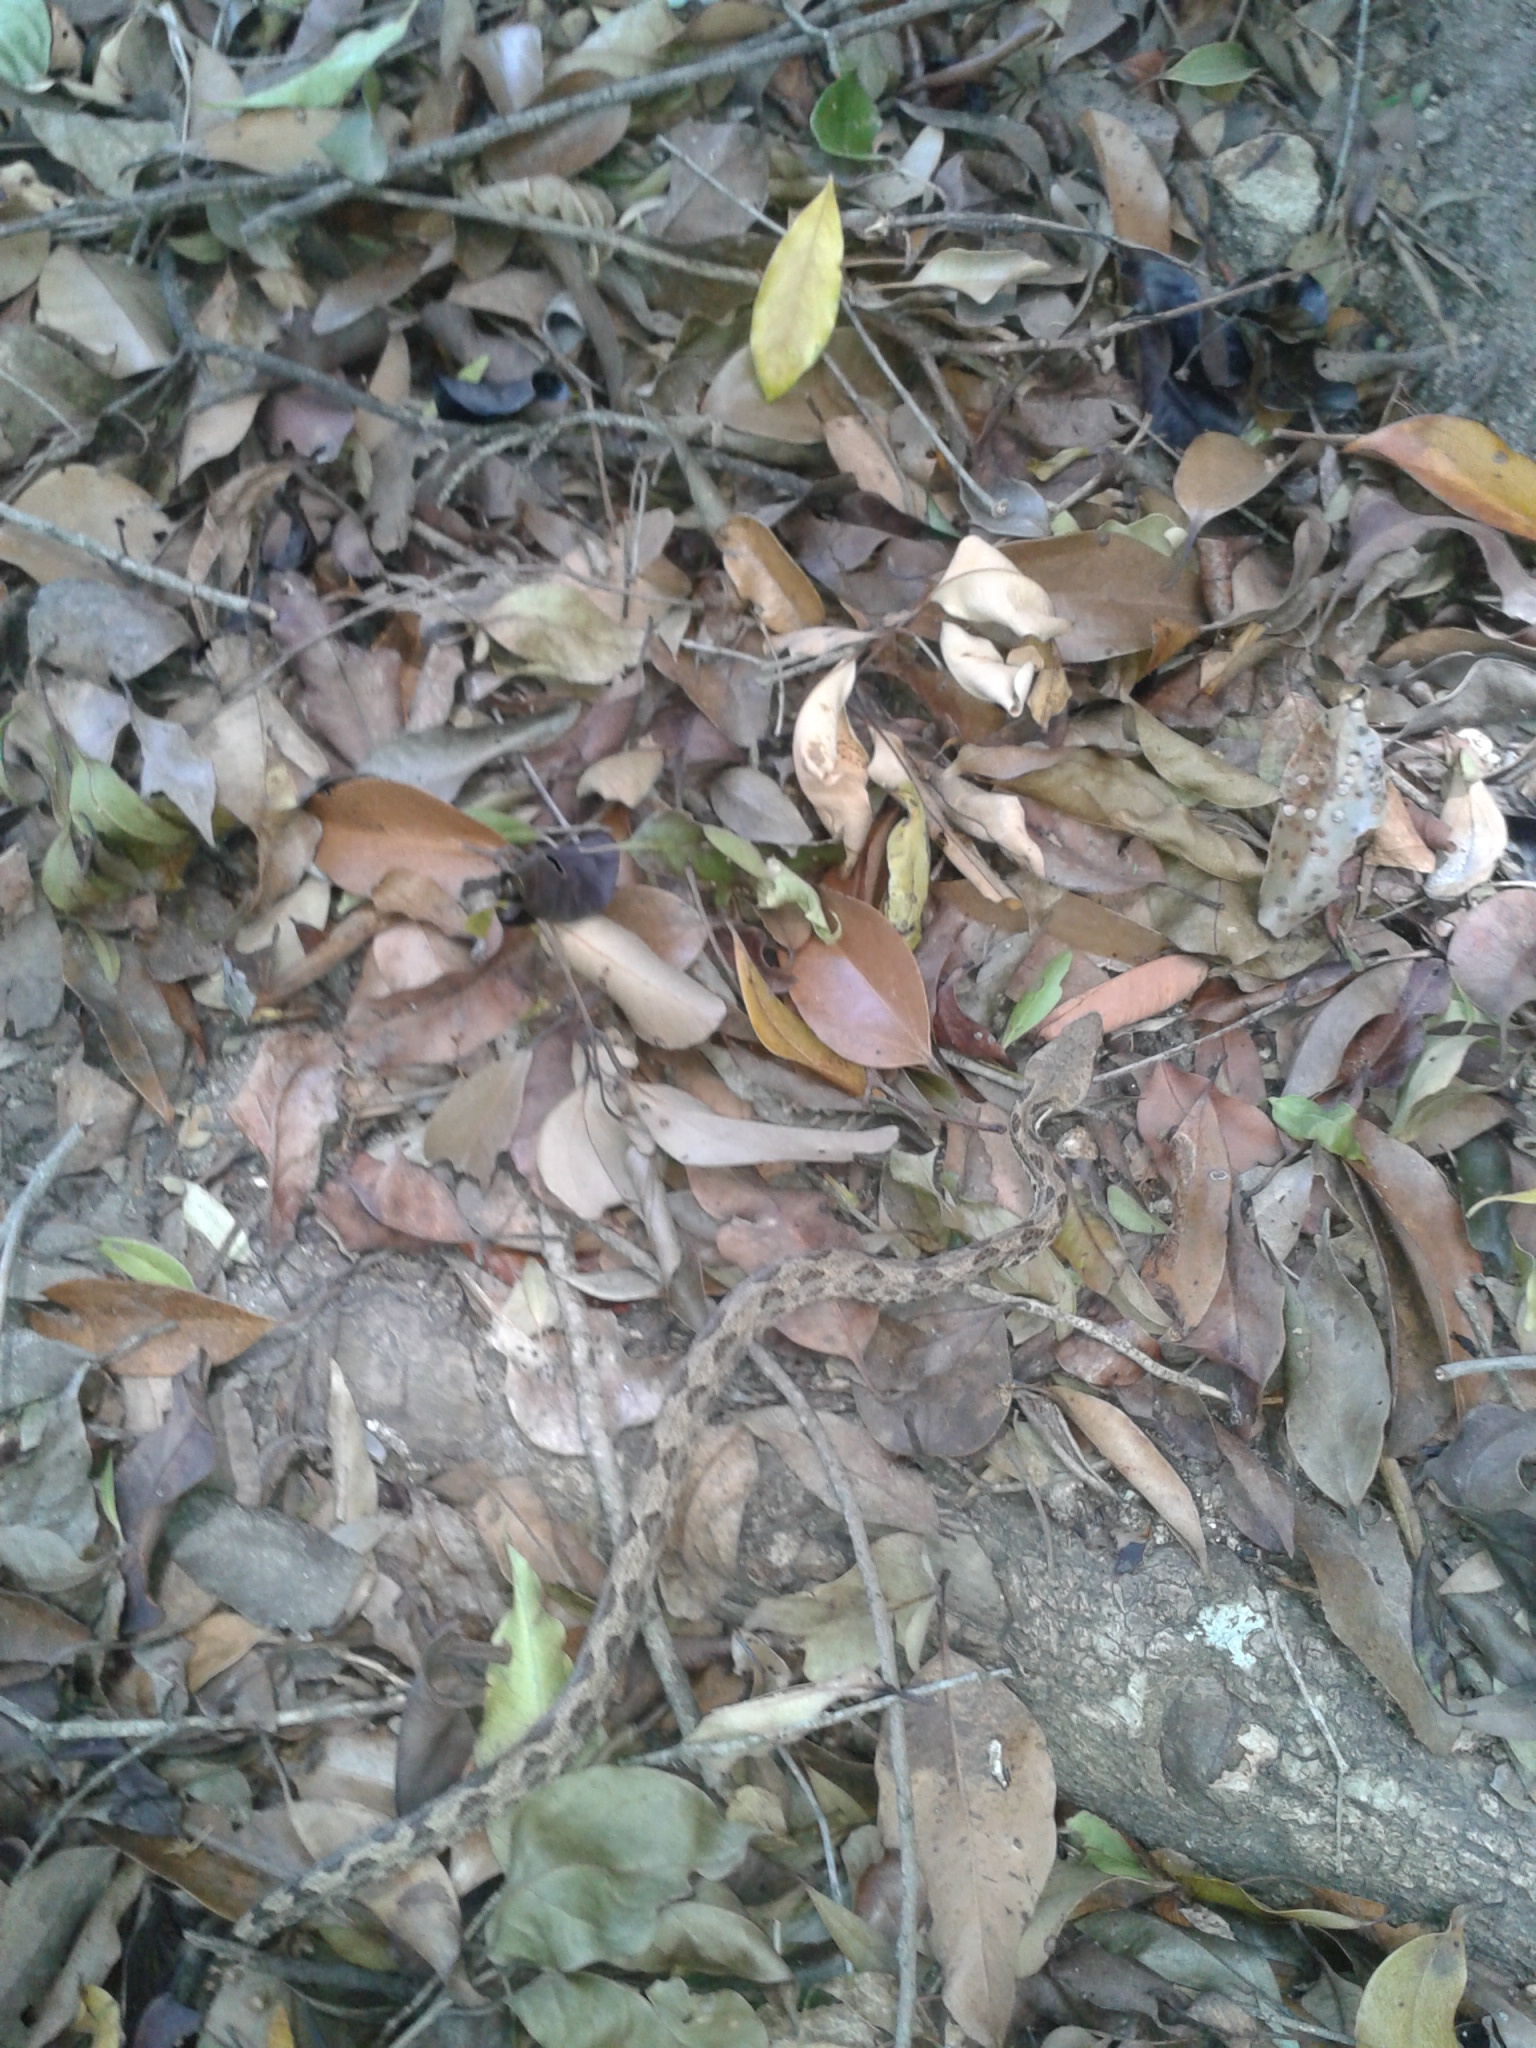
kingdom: Animalia
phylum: Chordata
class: Squamata
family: Viperidae
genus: Hypnale
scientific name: Hypnale hypnale
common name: Hump-nosed moccasin
